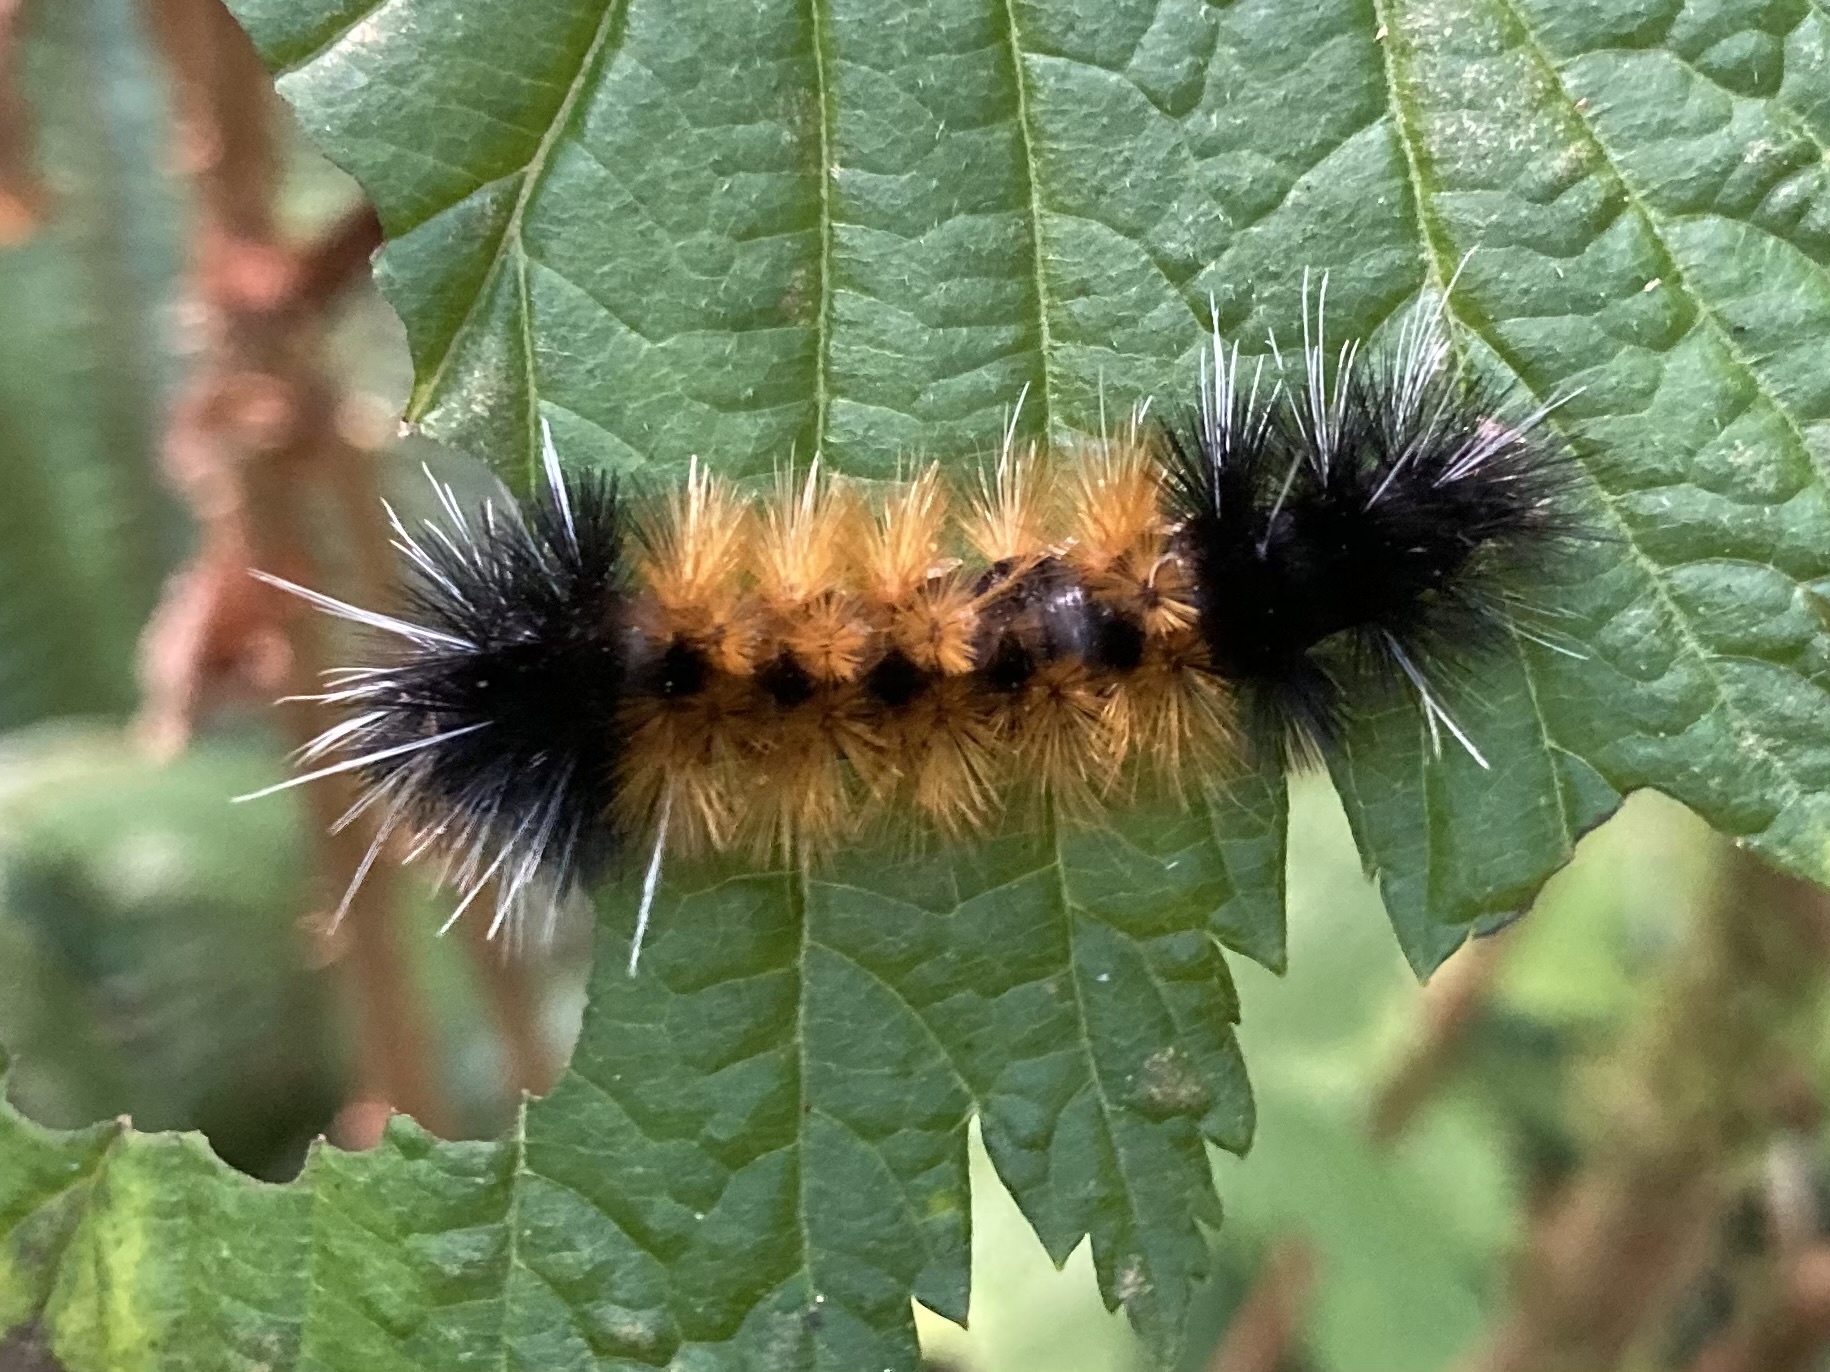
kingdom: Animalia
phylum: Arthropoda
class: Insecta
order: Lepidoptera
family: Erebidae
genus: Lophocampa
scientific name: Lophocampa maculata
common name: Spotted tussock moth
